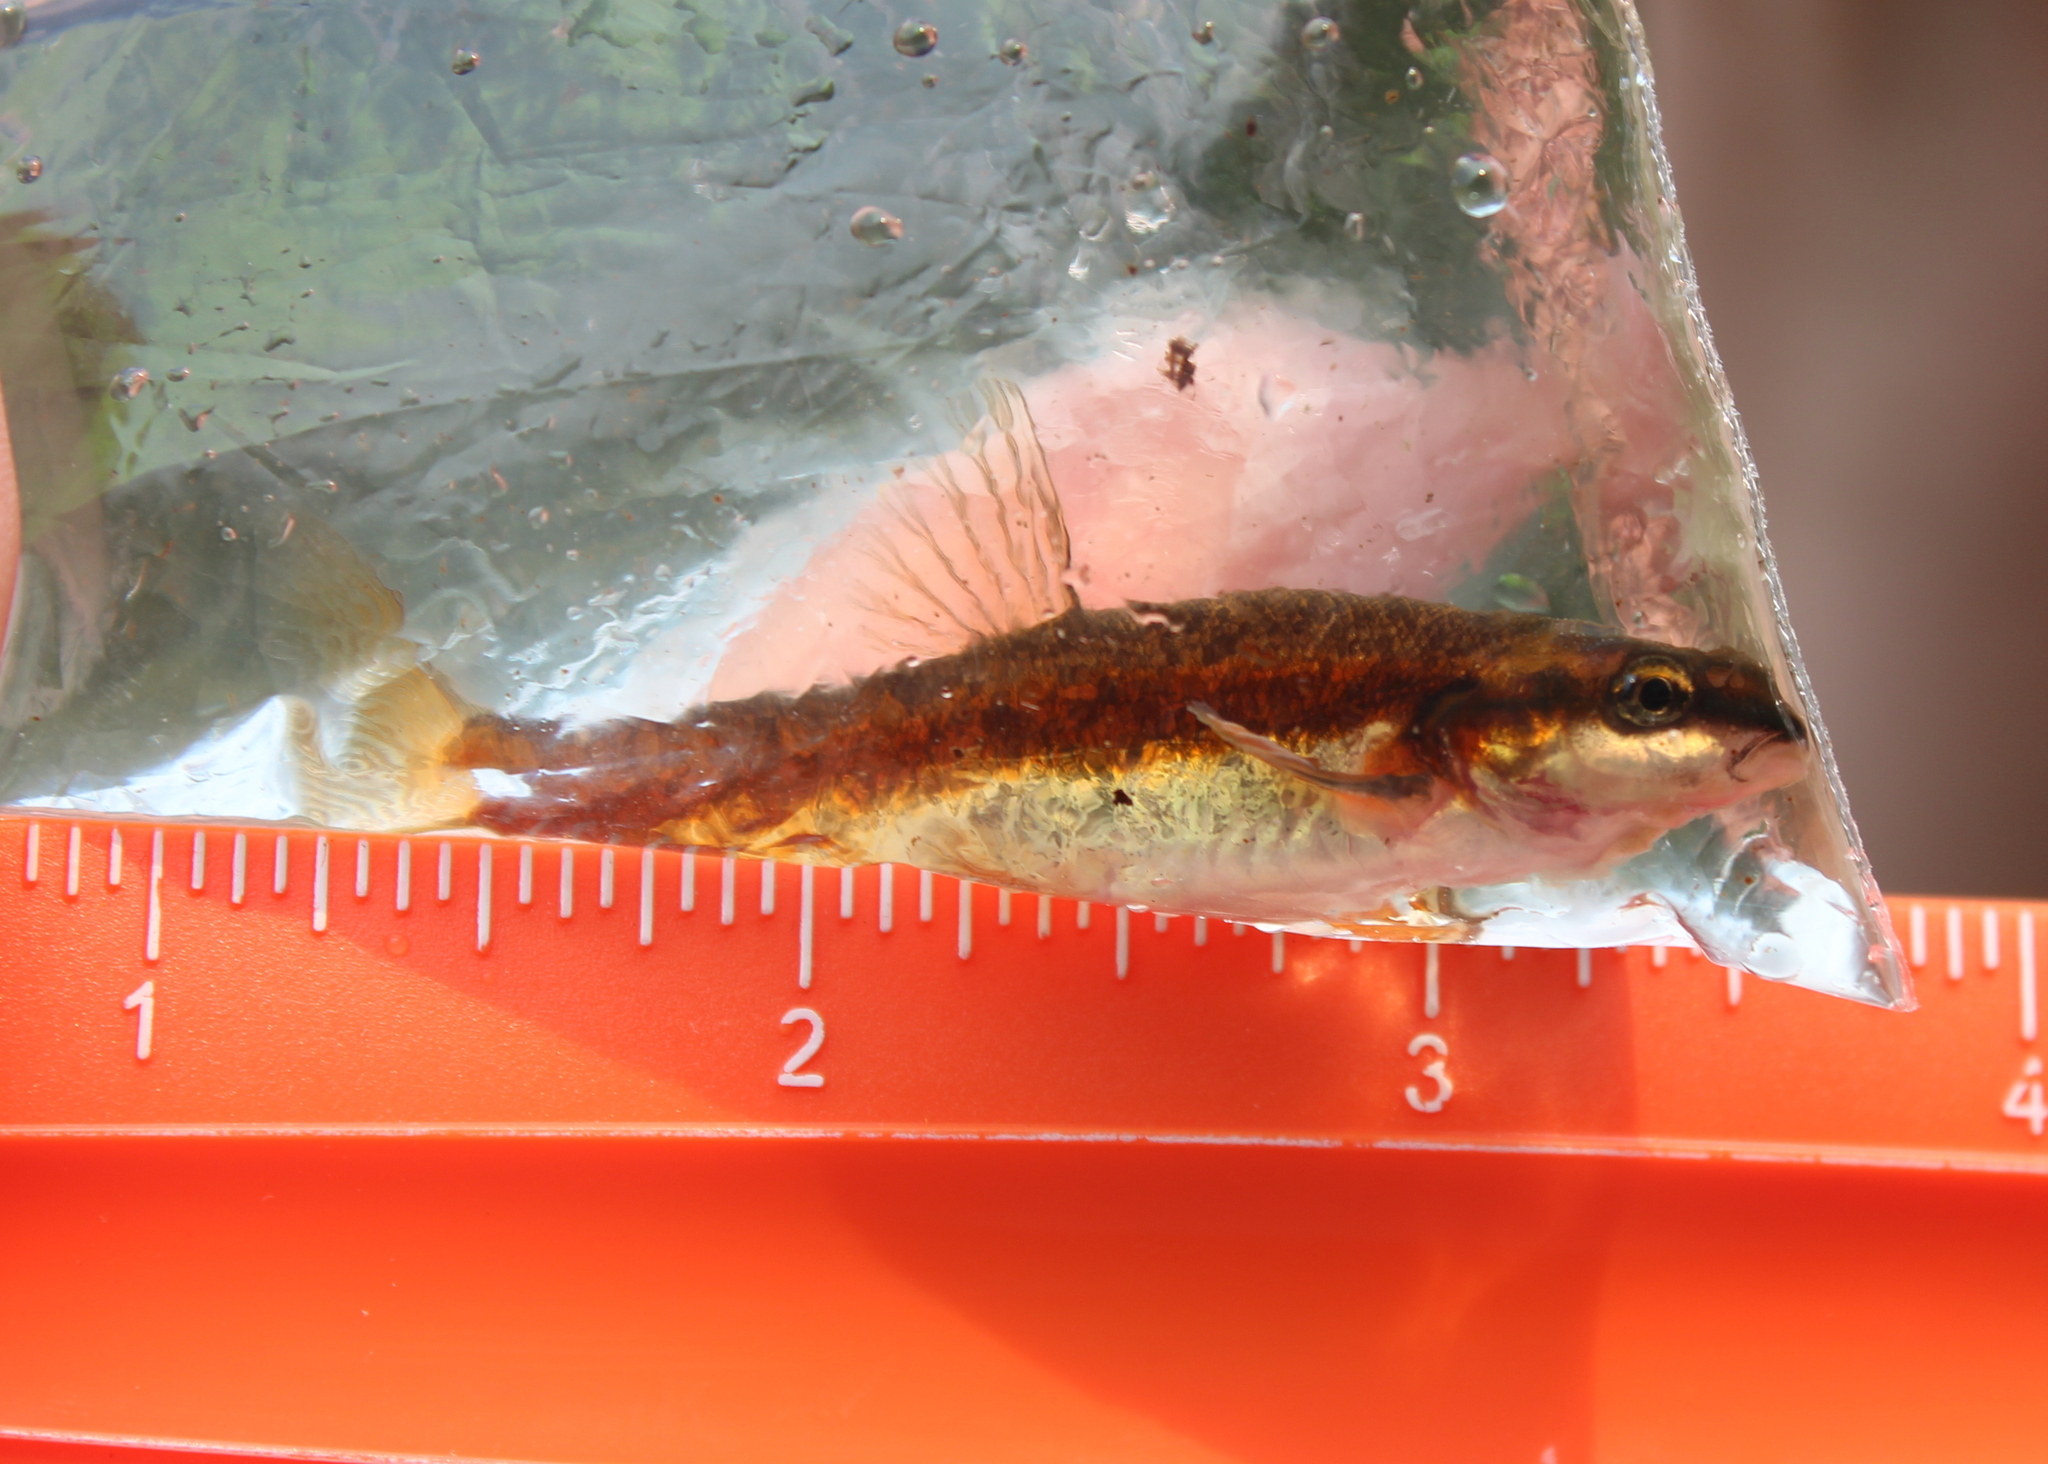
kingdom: Animalia
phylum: Chordata
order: Cypriniformes
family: Cyprinidae
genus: Rhinichthys
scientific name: Rhinichthys atratulus
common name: Eastern blacknose dace
